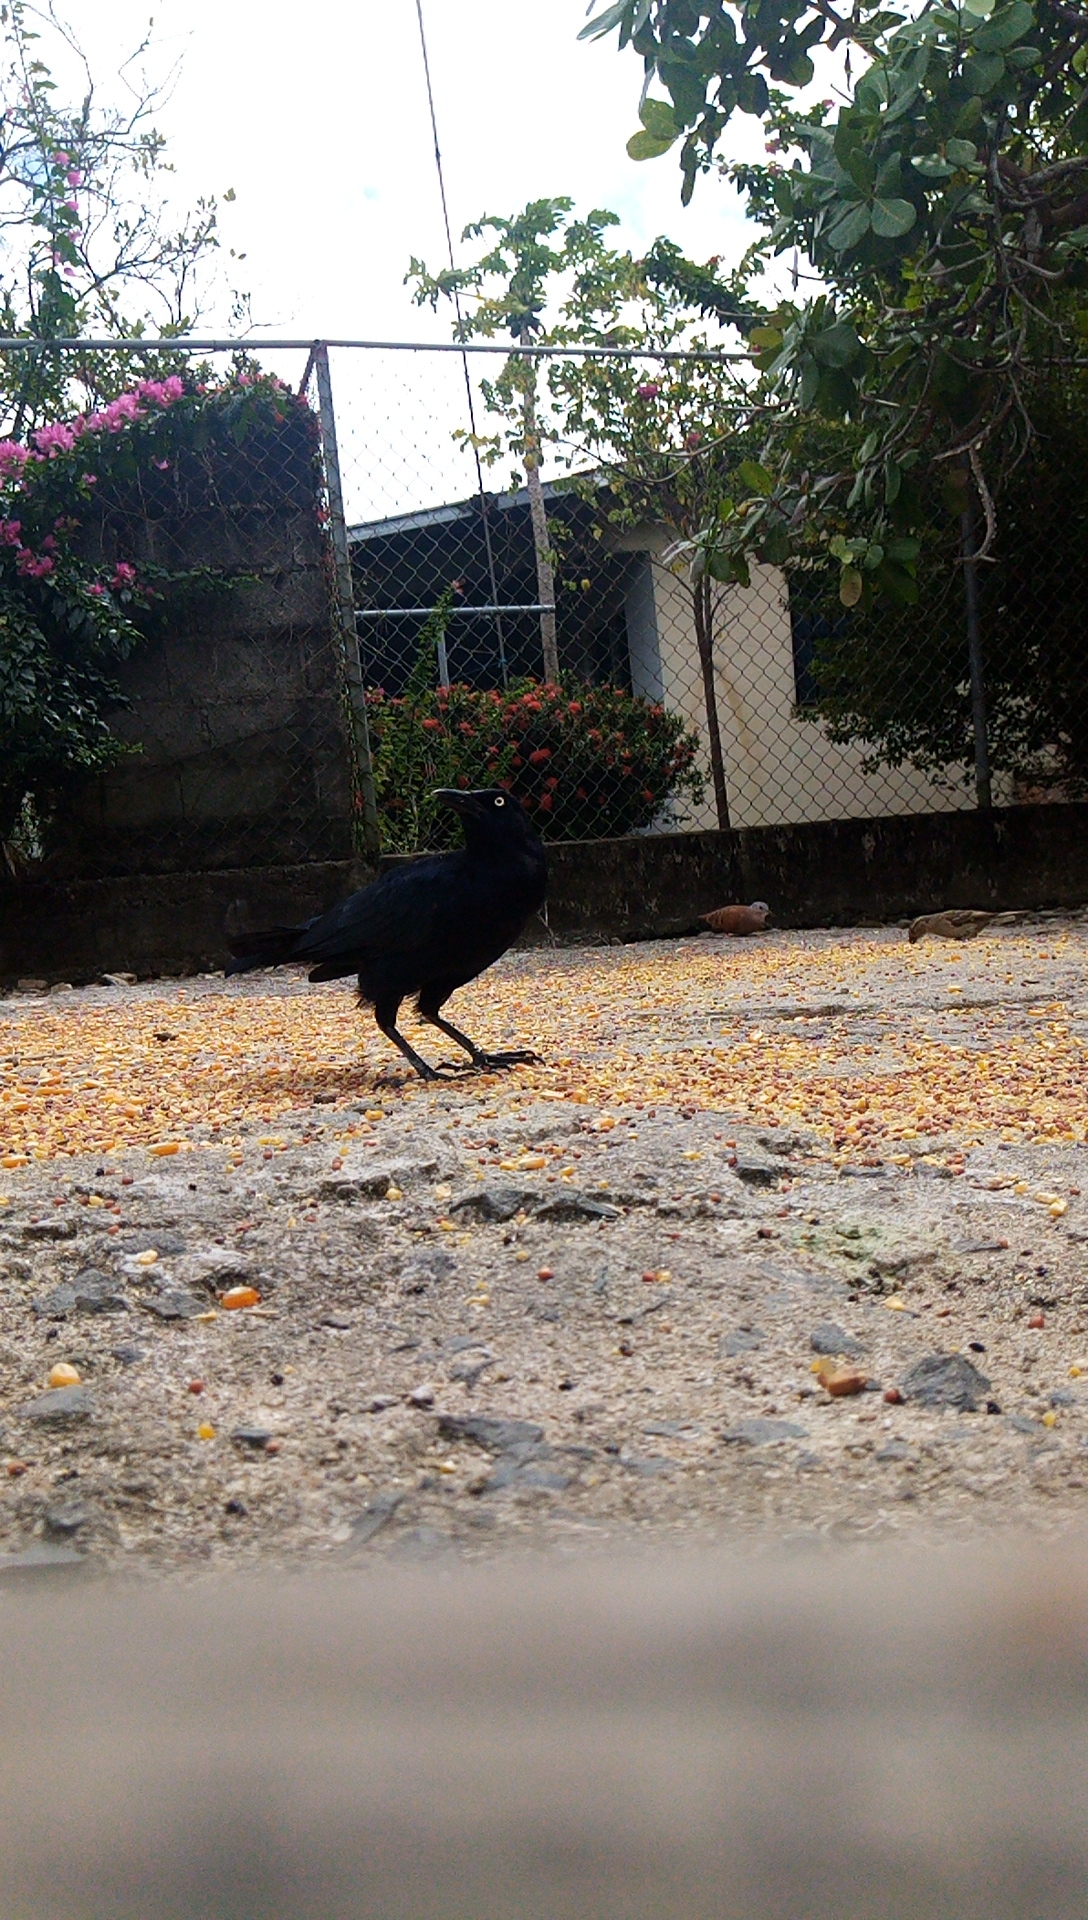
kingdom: Animalia
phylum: Chordata
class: Aves
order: Passeriformes
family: Icteridae
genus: Quiscalus
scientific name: Quiscalus mexicanus
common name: Great-tailed grackle
